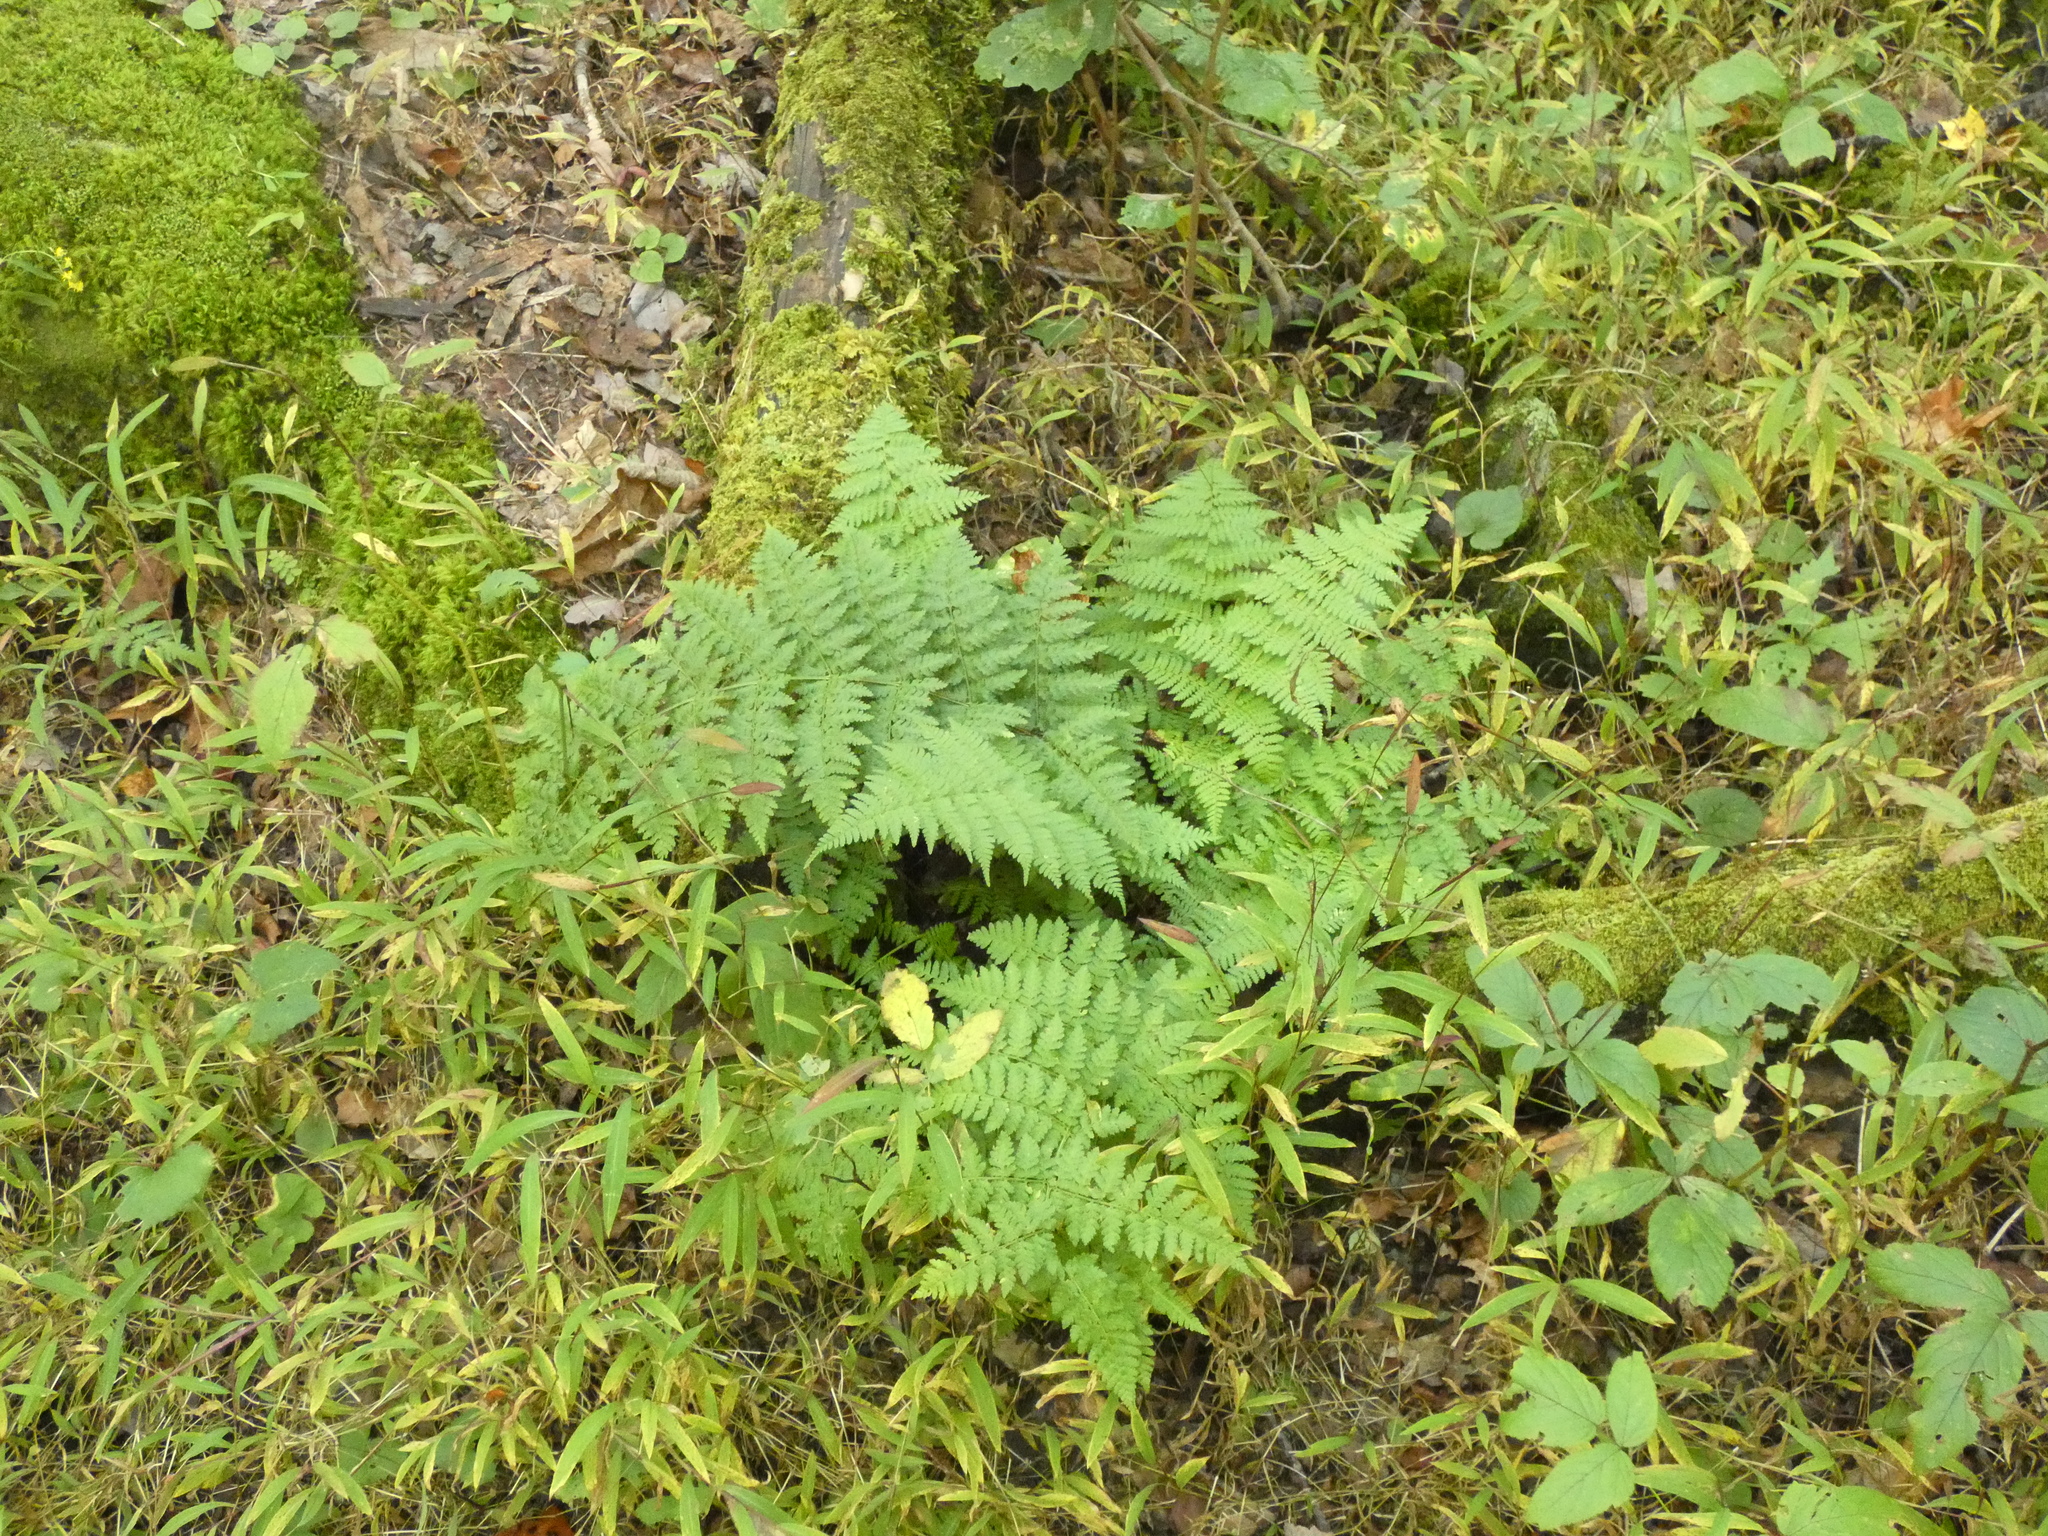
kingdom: Plantae
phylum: Tracheophyta
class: Polypodiopsida
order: Polypodiales
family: Dryopteridaceae
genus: Dryopteris
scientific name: Dryopteris intermedia
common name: Evergreen wood fern
